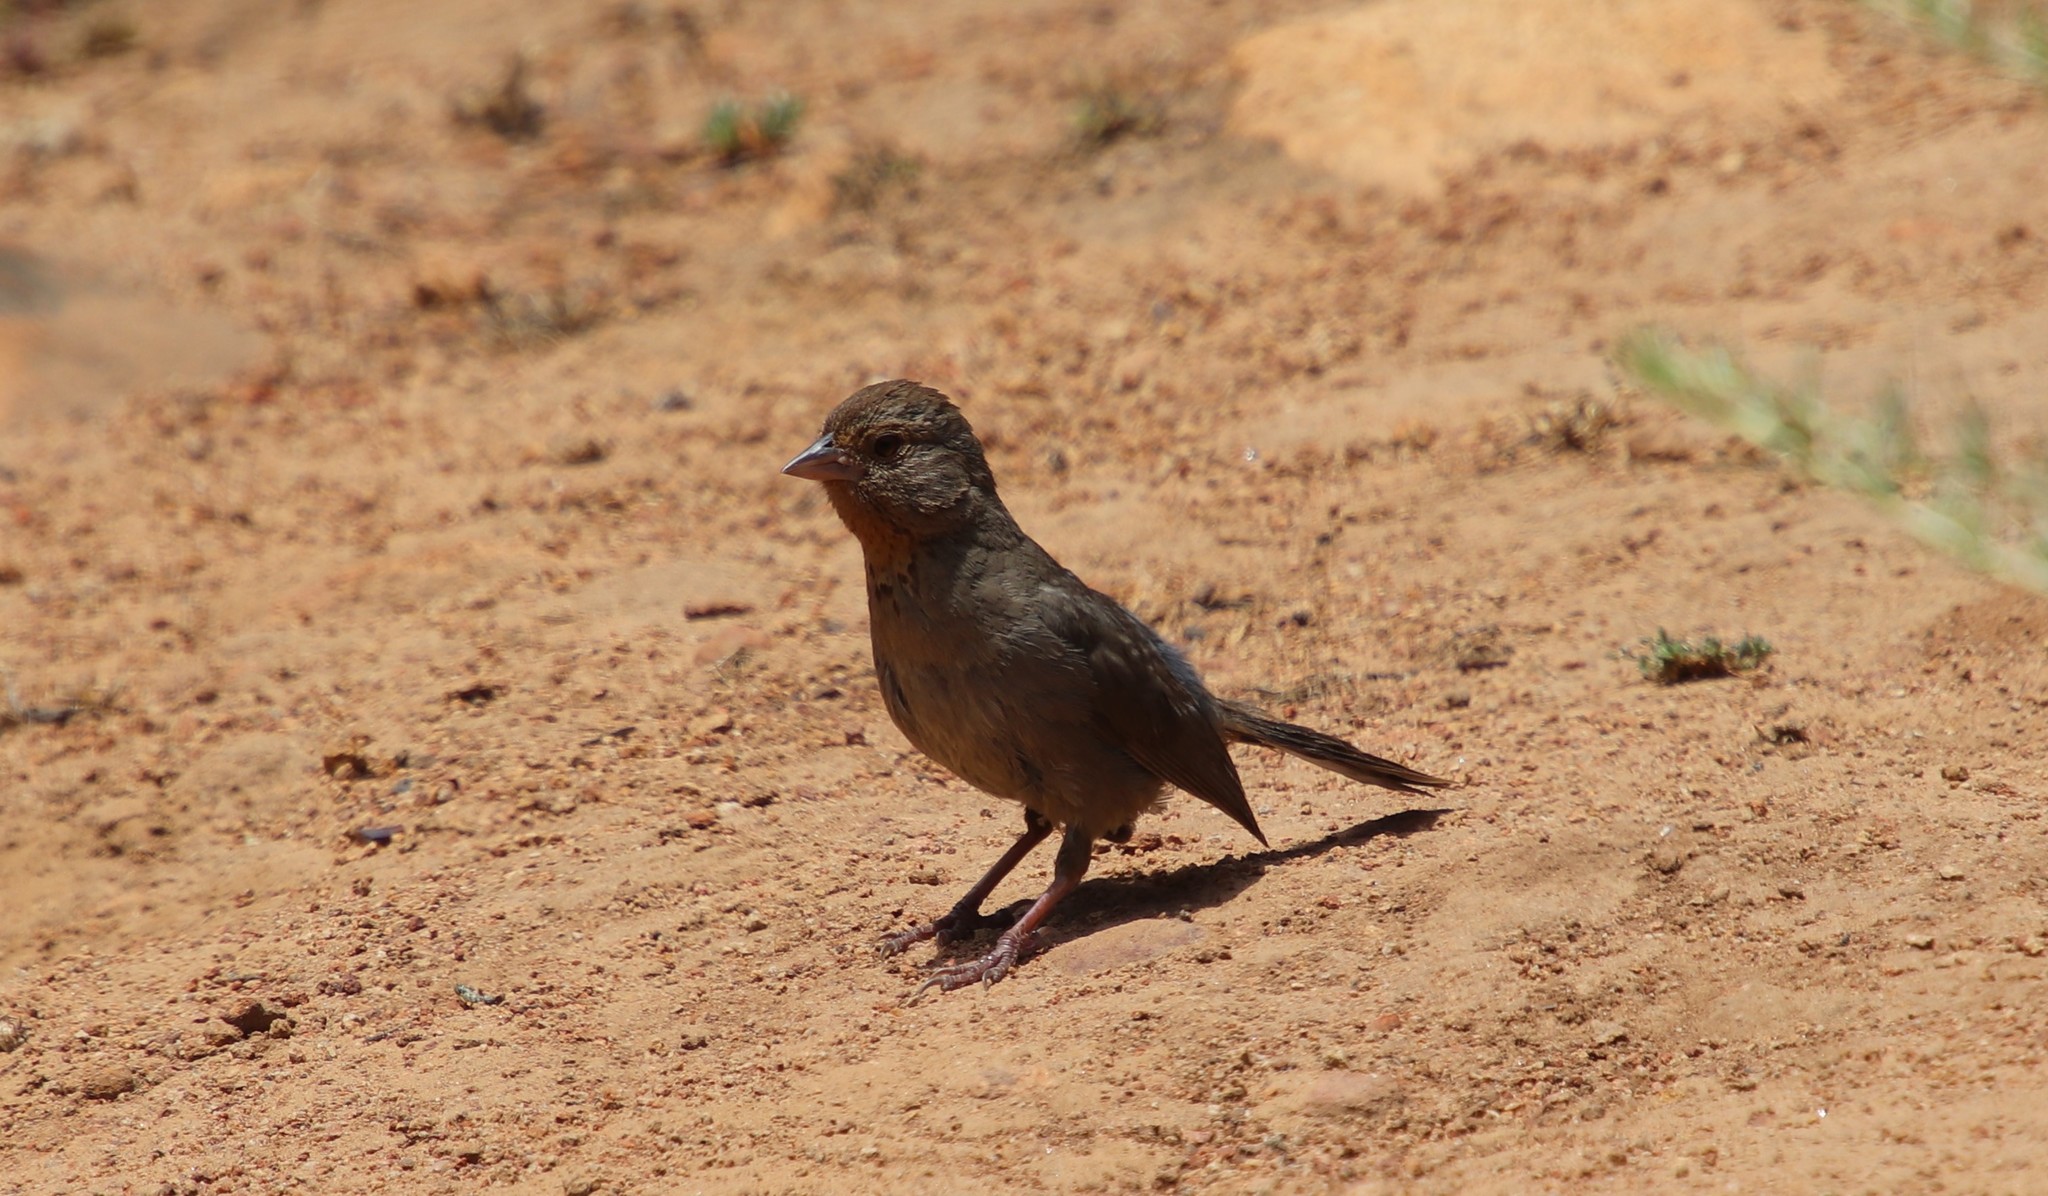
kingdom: Animalia
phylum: Chordata
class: Aves
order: Passeriformes
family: Passerellidae
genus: Melozone
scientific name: Melozone crissalis
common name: California towhee
